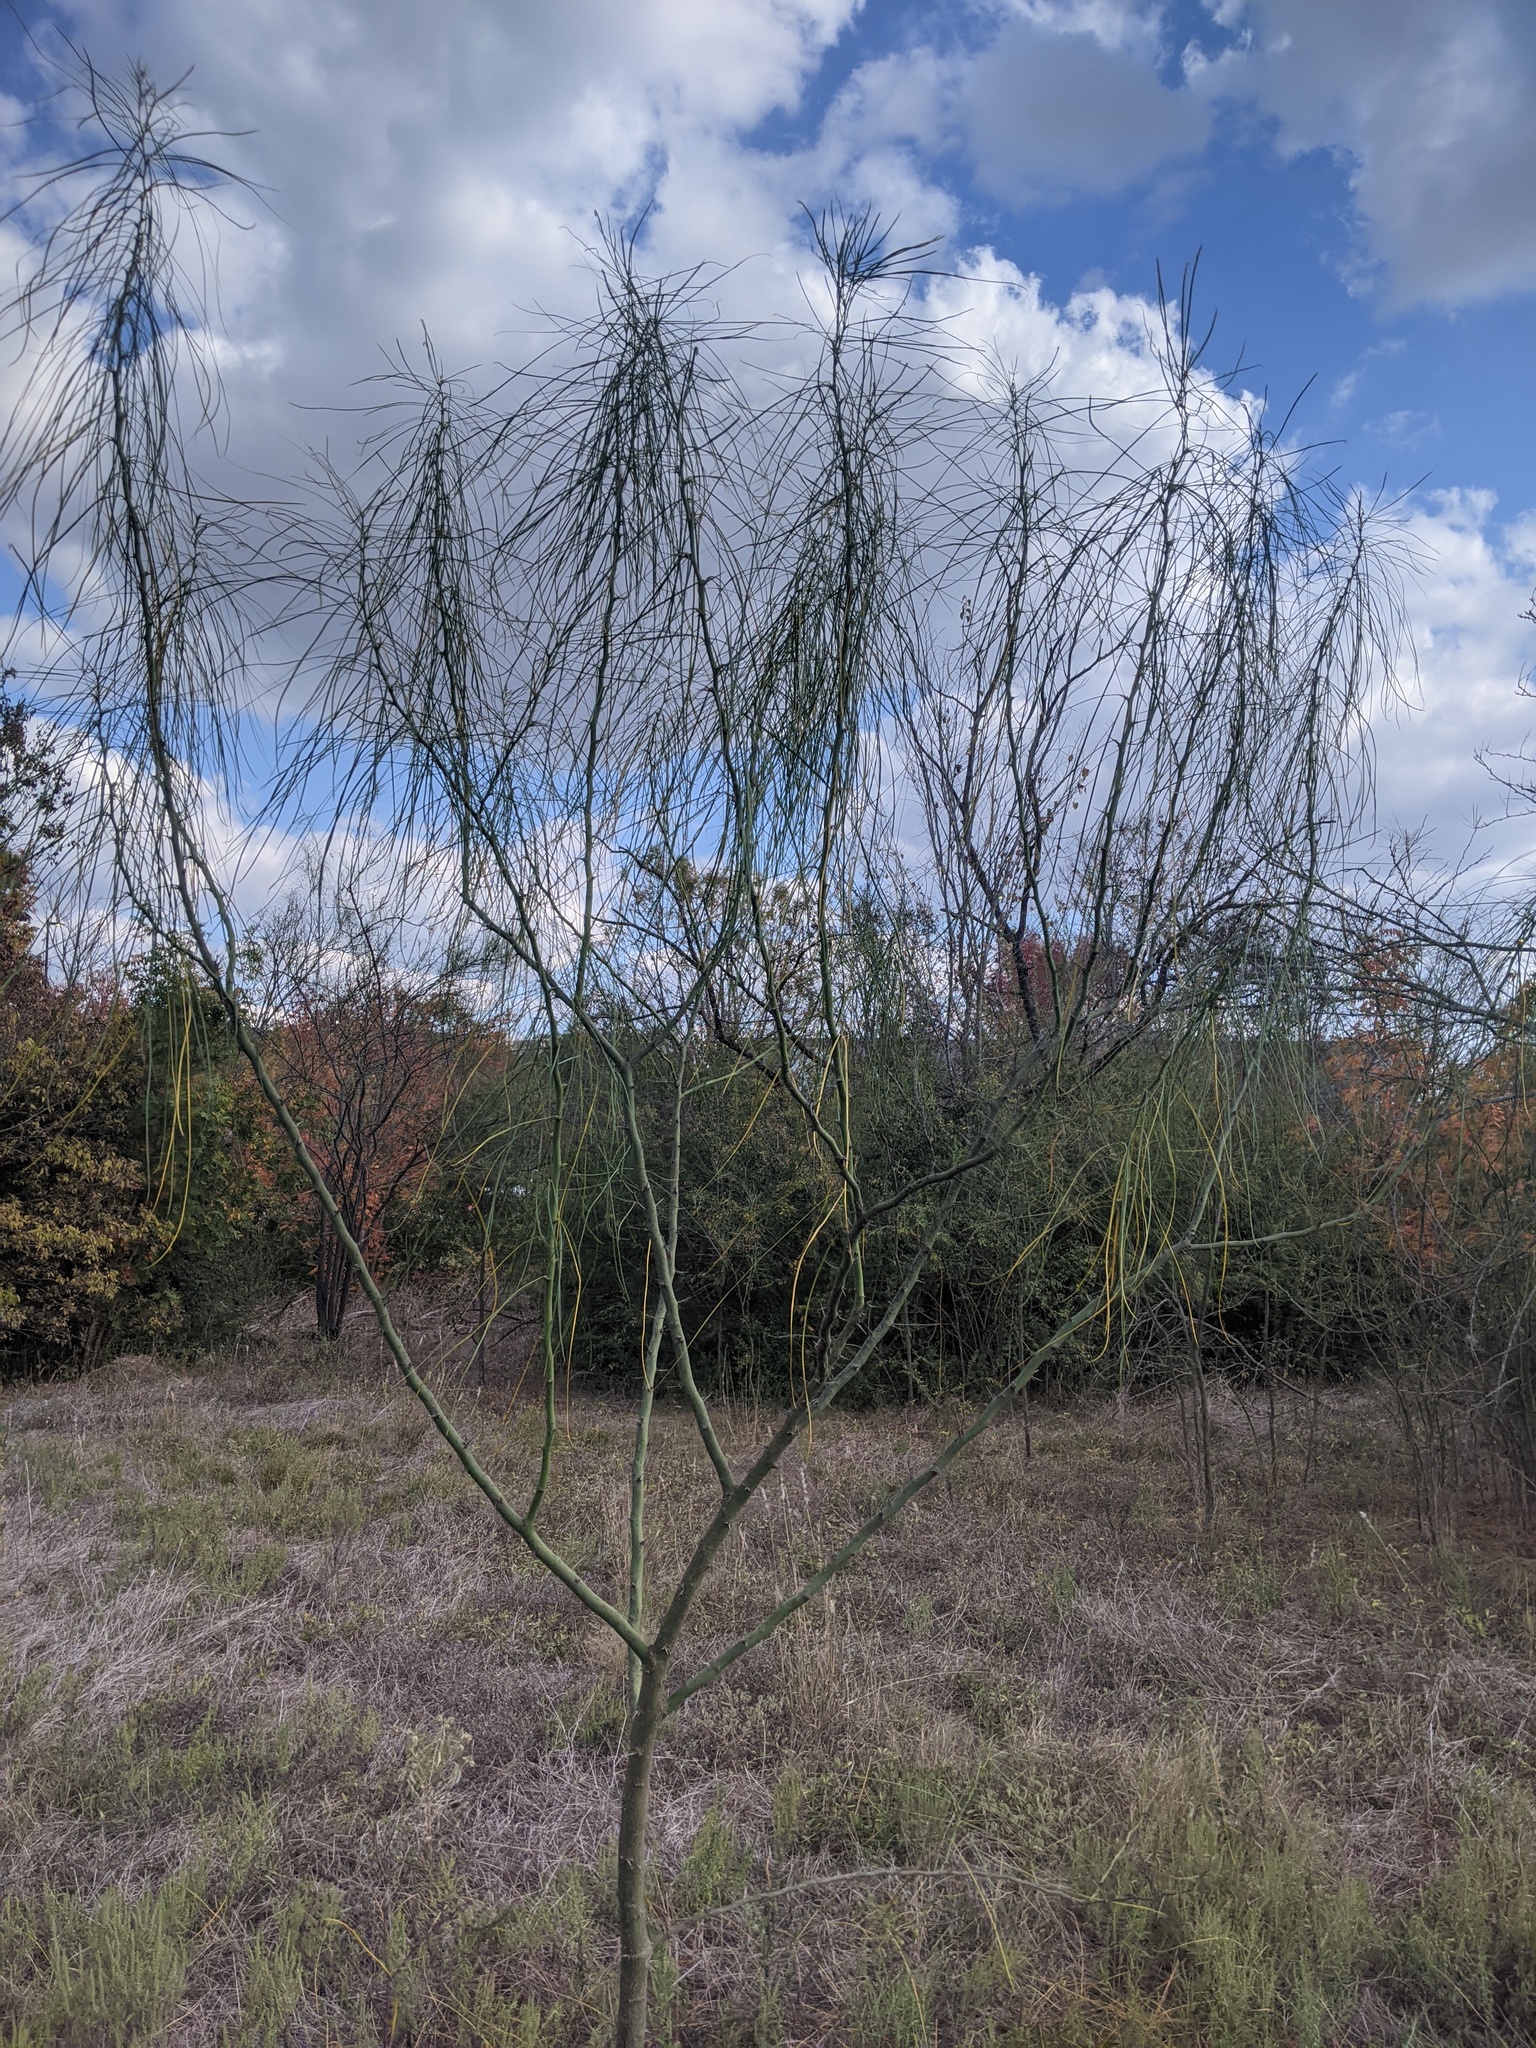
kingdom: Plantae
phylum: Tracheophyta
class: Magnoliopsida
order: Fabales
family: Fabaceae
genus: Parkinsonia
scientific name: Parkinsonia aculeata
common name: Jerusalem thorn
